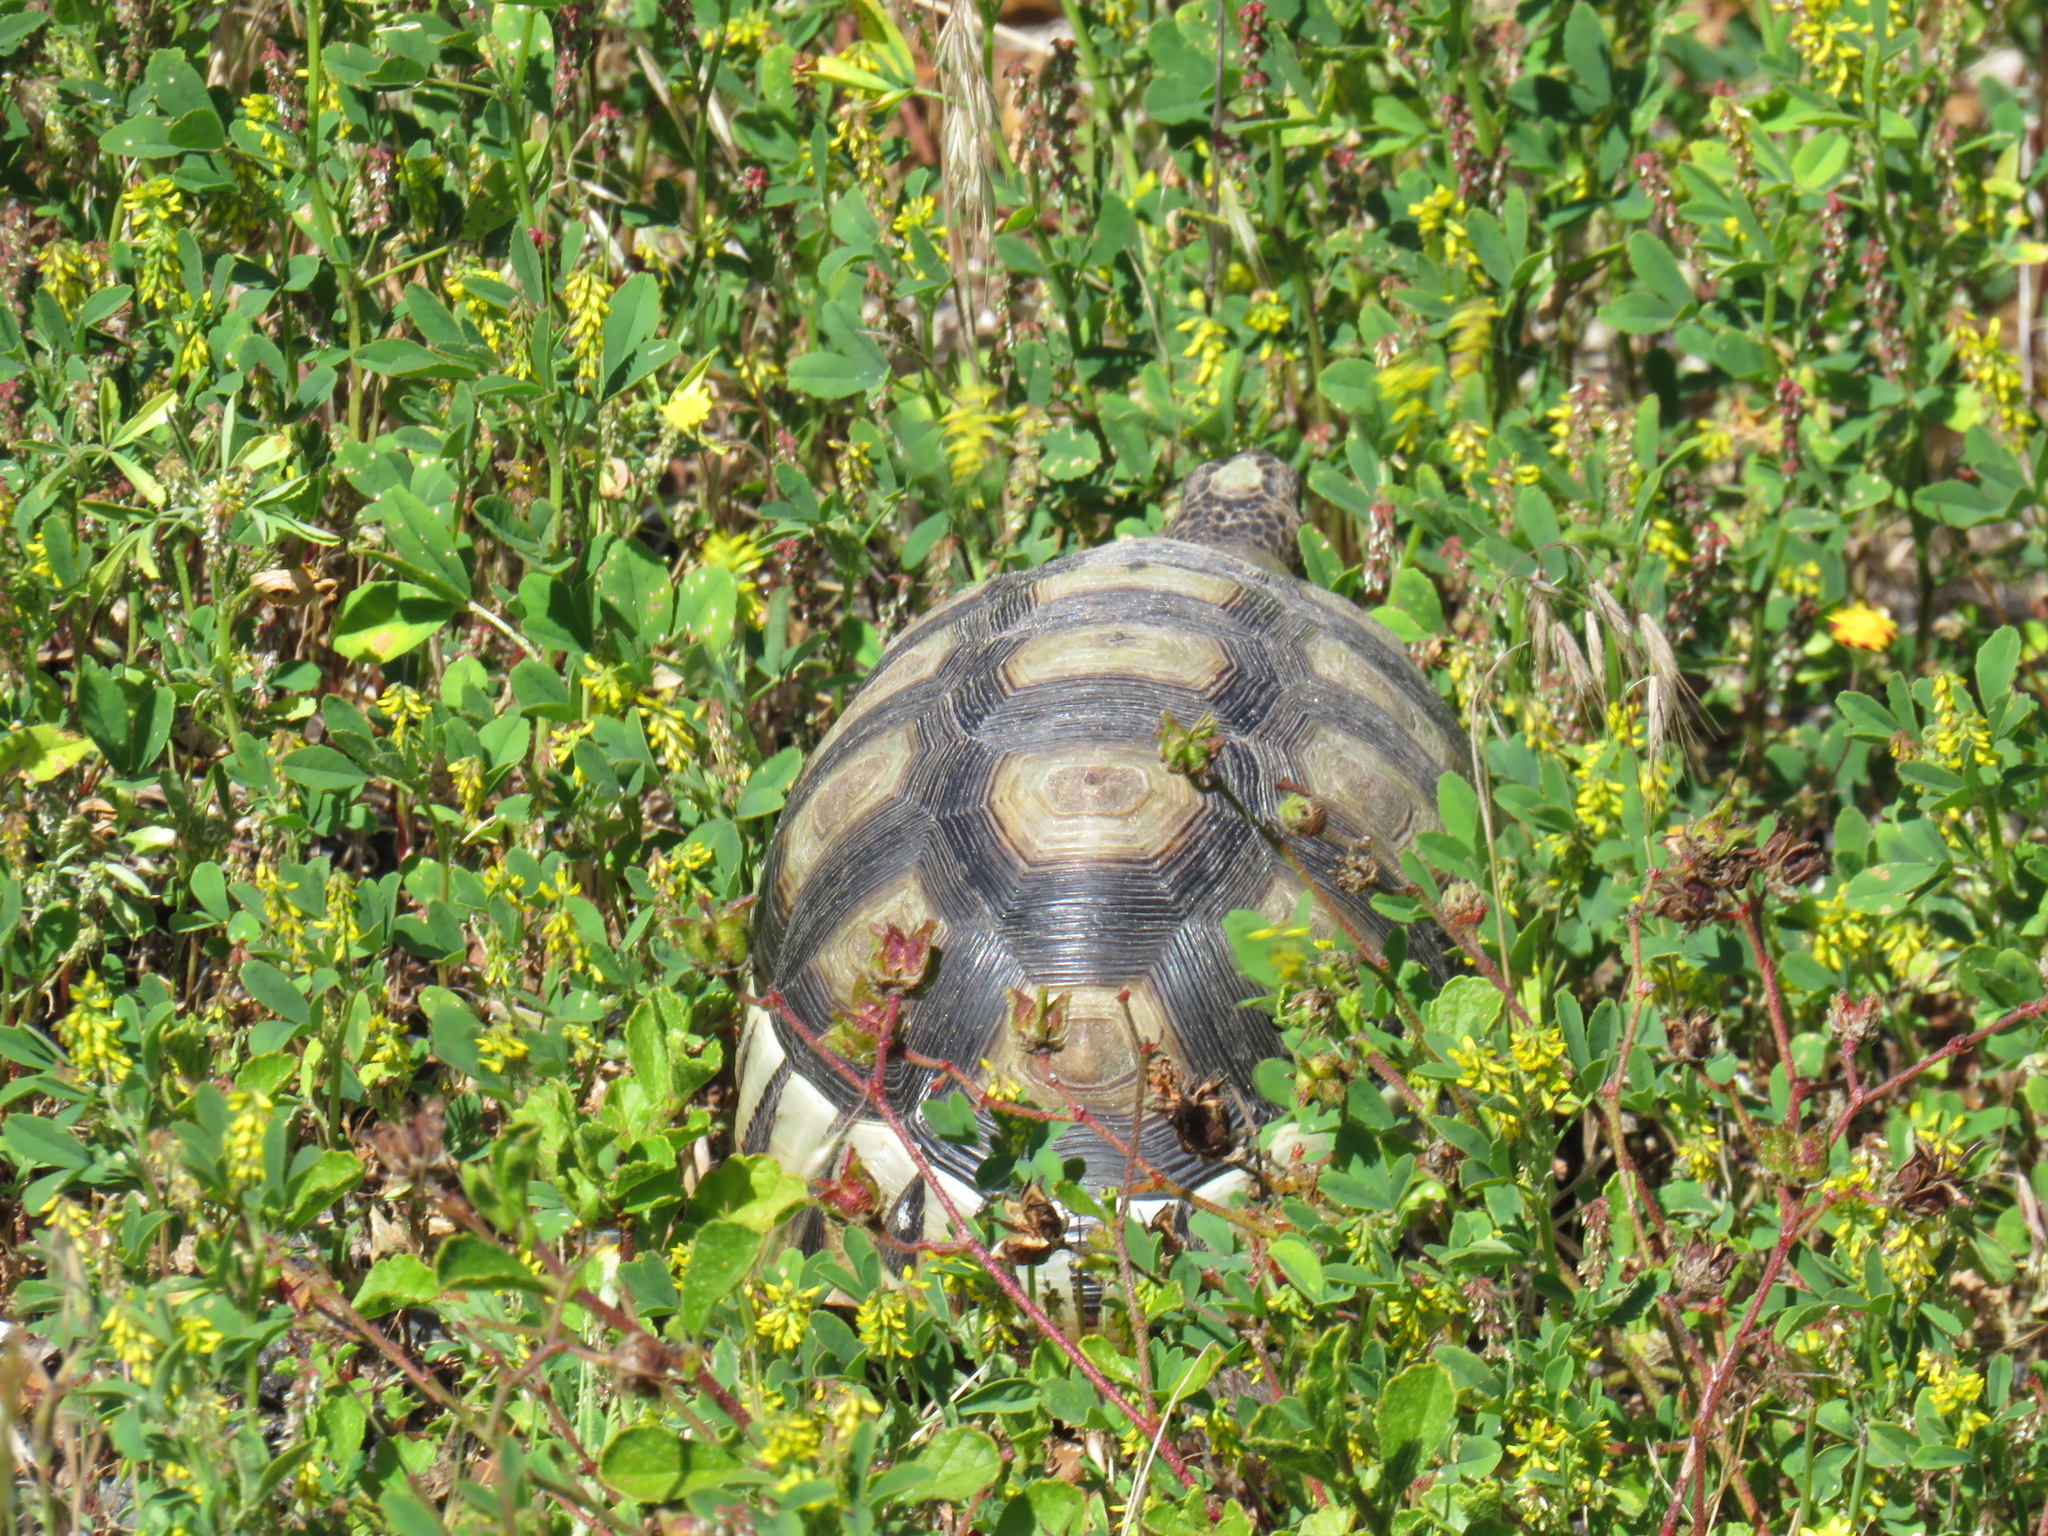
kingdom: Animalia
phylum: Chordata
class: Testudines
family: Testudinidae
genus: Chersina
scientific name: Chersina angulata
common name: South african bowsprit tortoise
